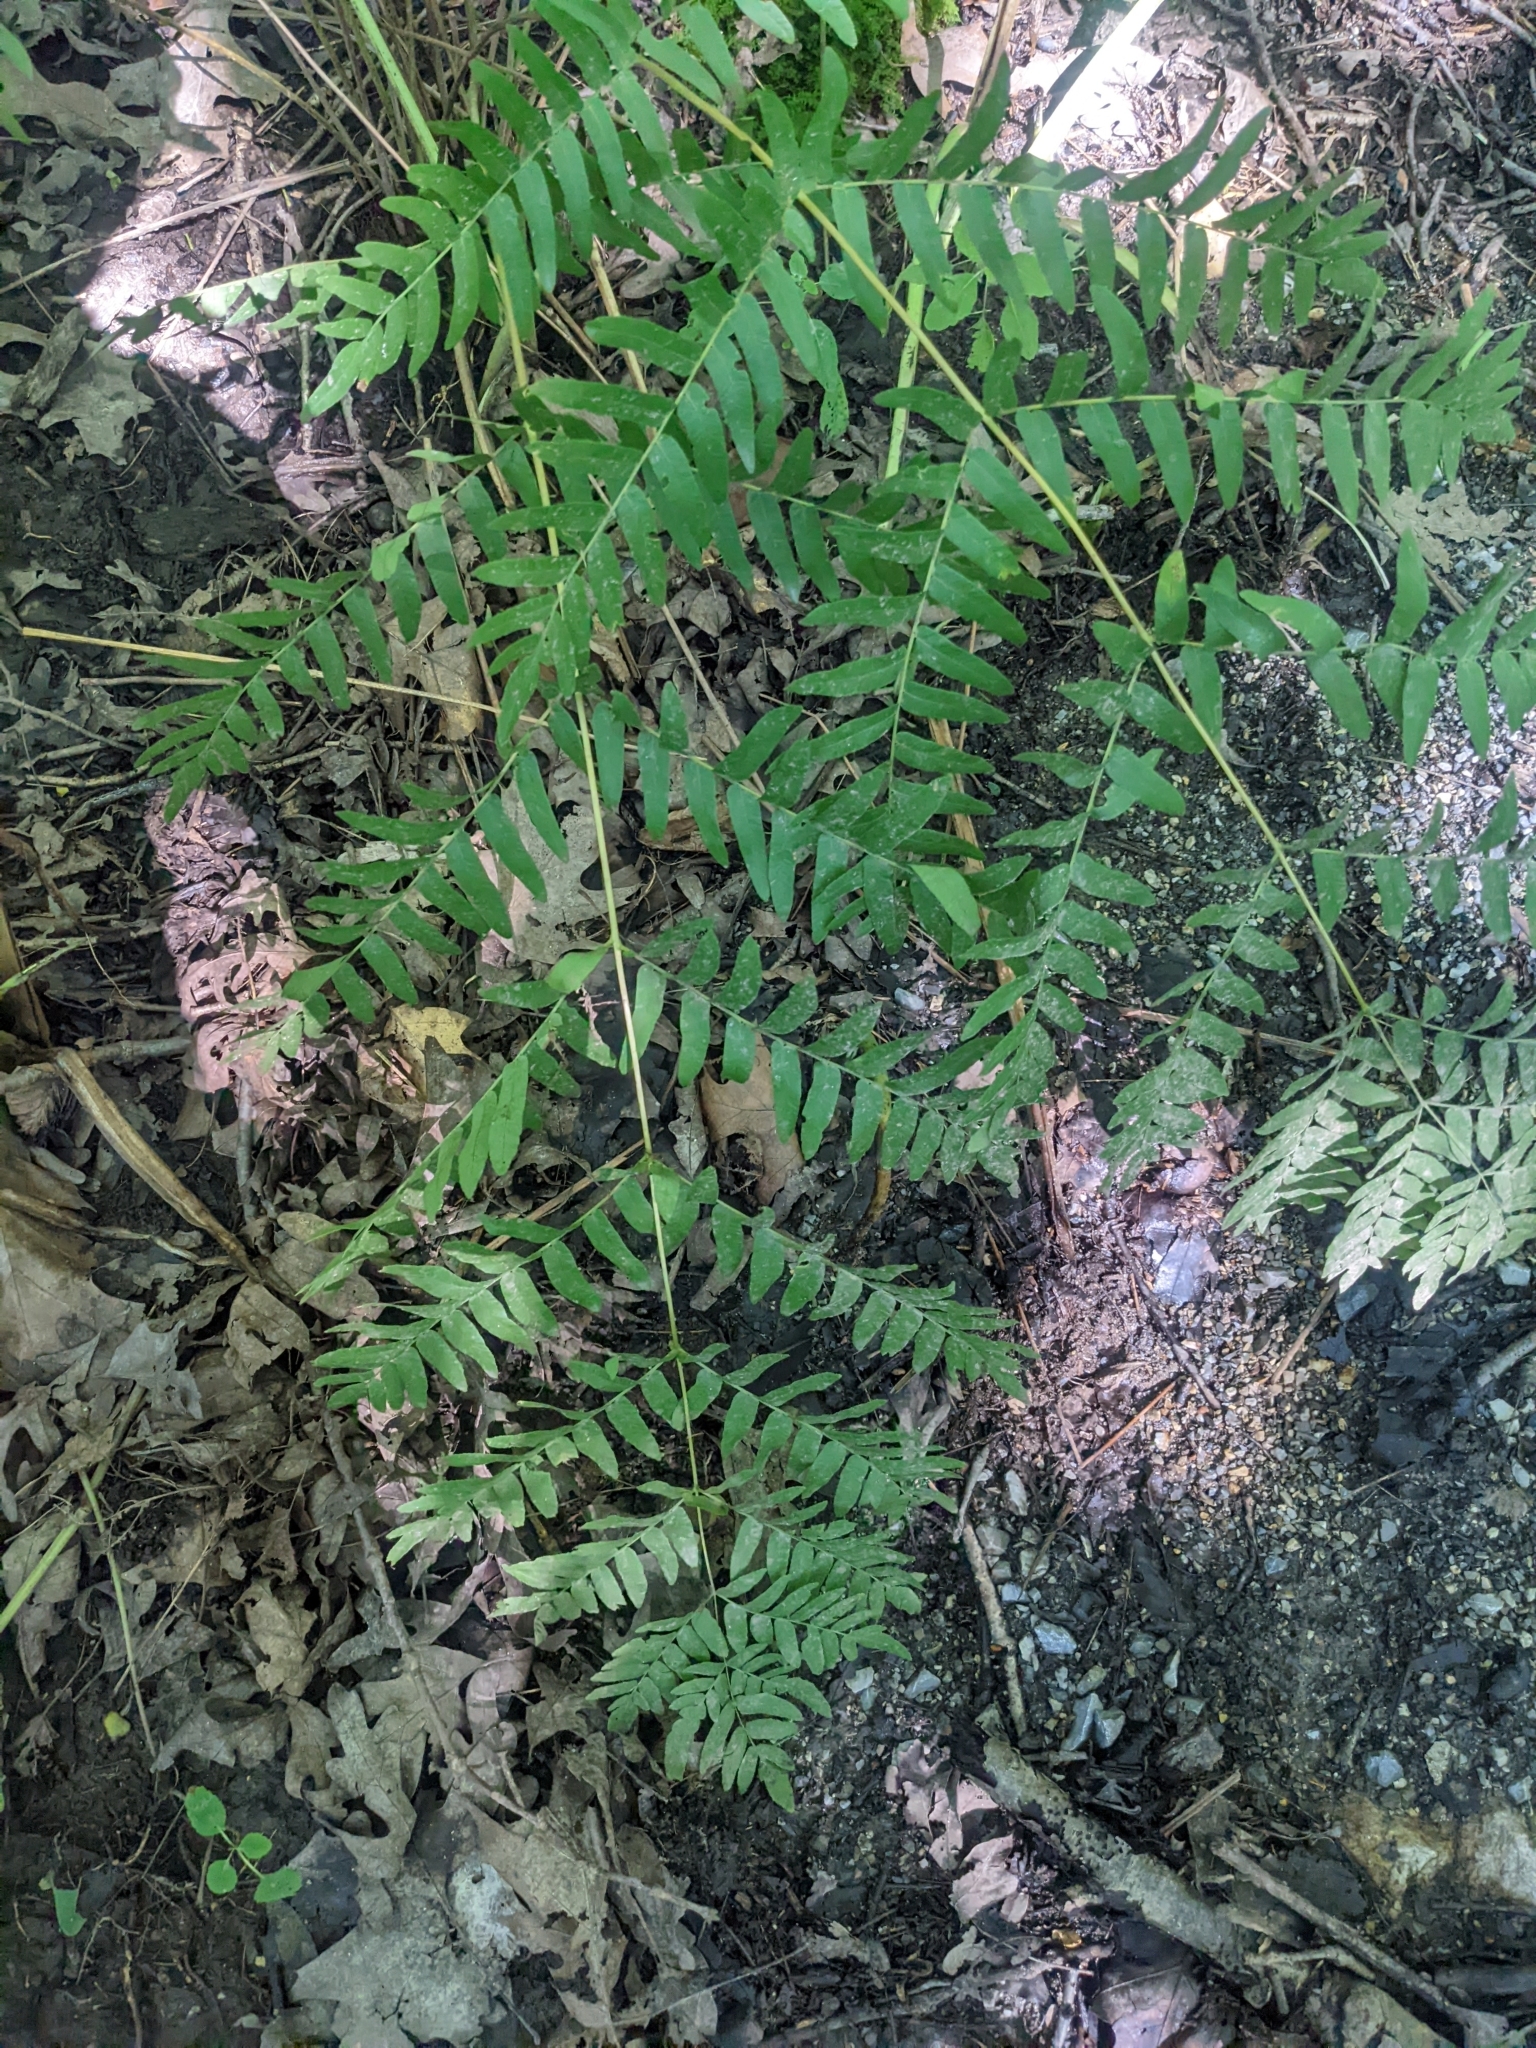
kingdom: Plantae
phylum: Tracheophyta
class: Polypodiopsida
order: Osmundales
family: Osmundaceae
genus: Osmunda
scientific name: Osmunda spectabilis
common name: American royal fern
